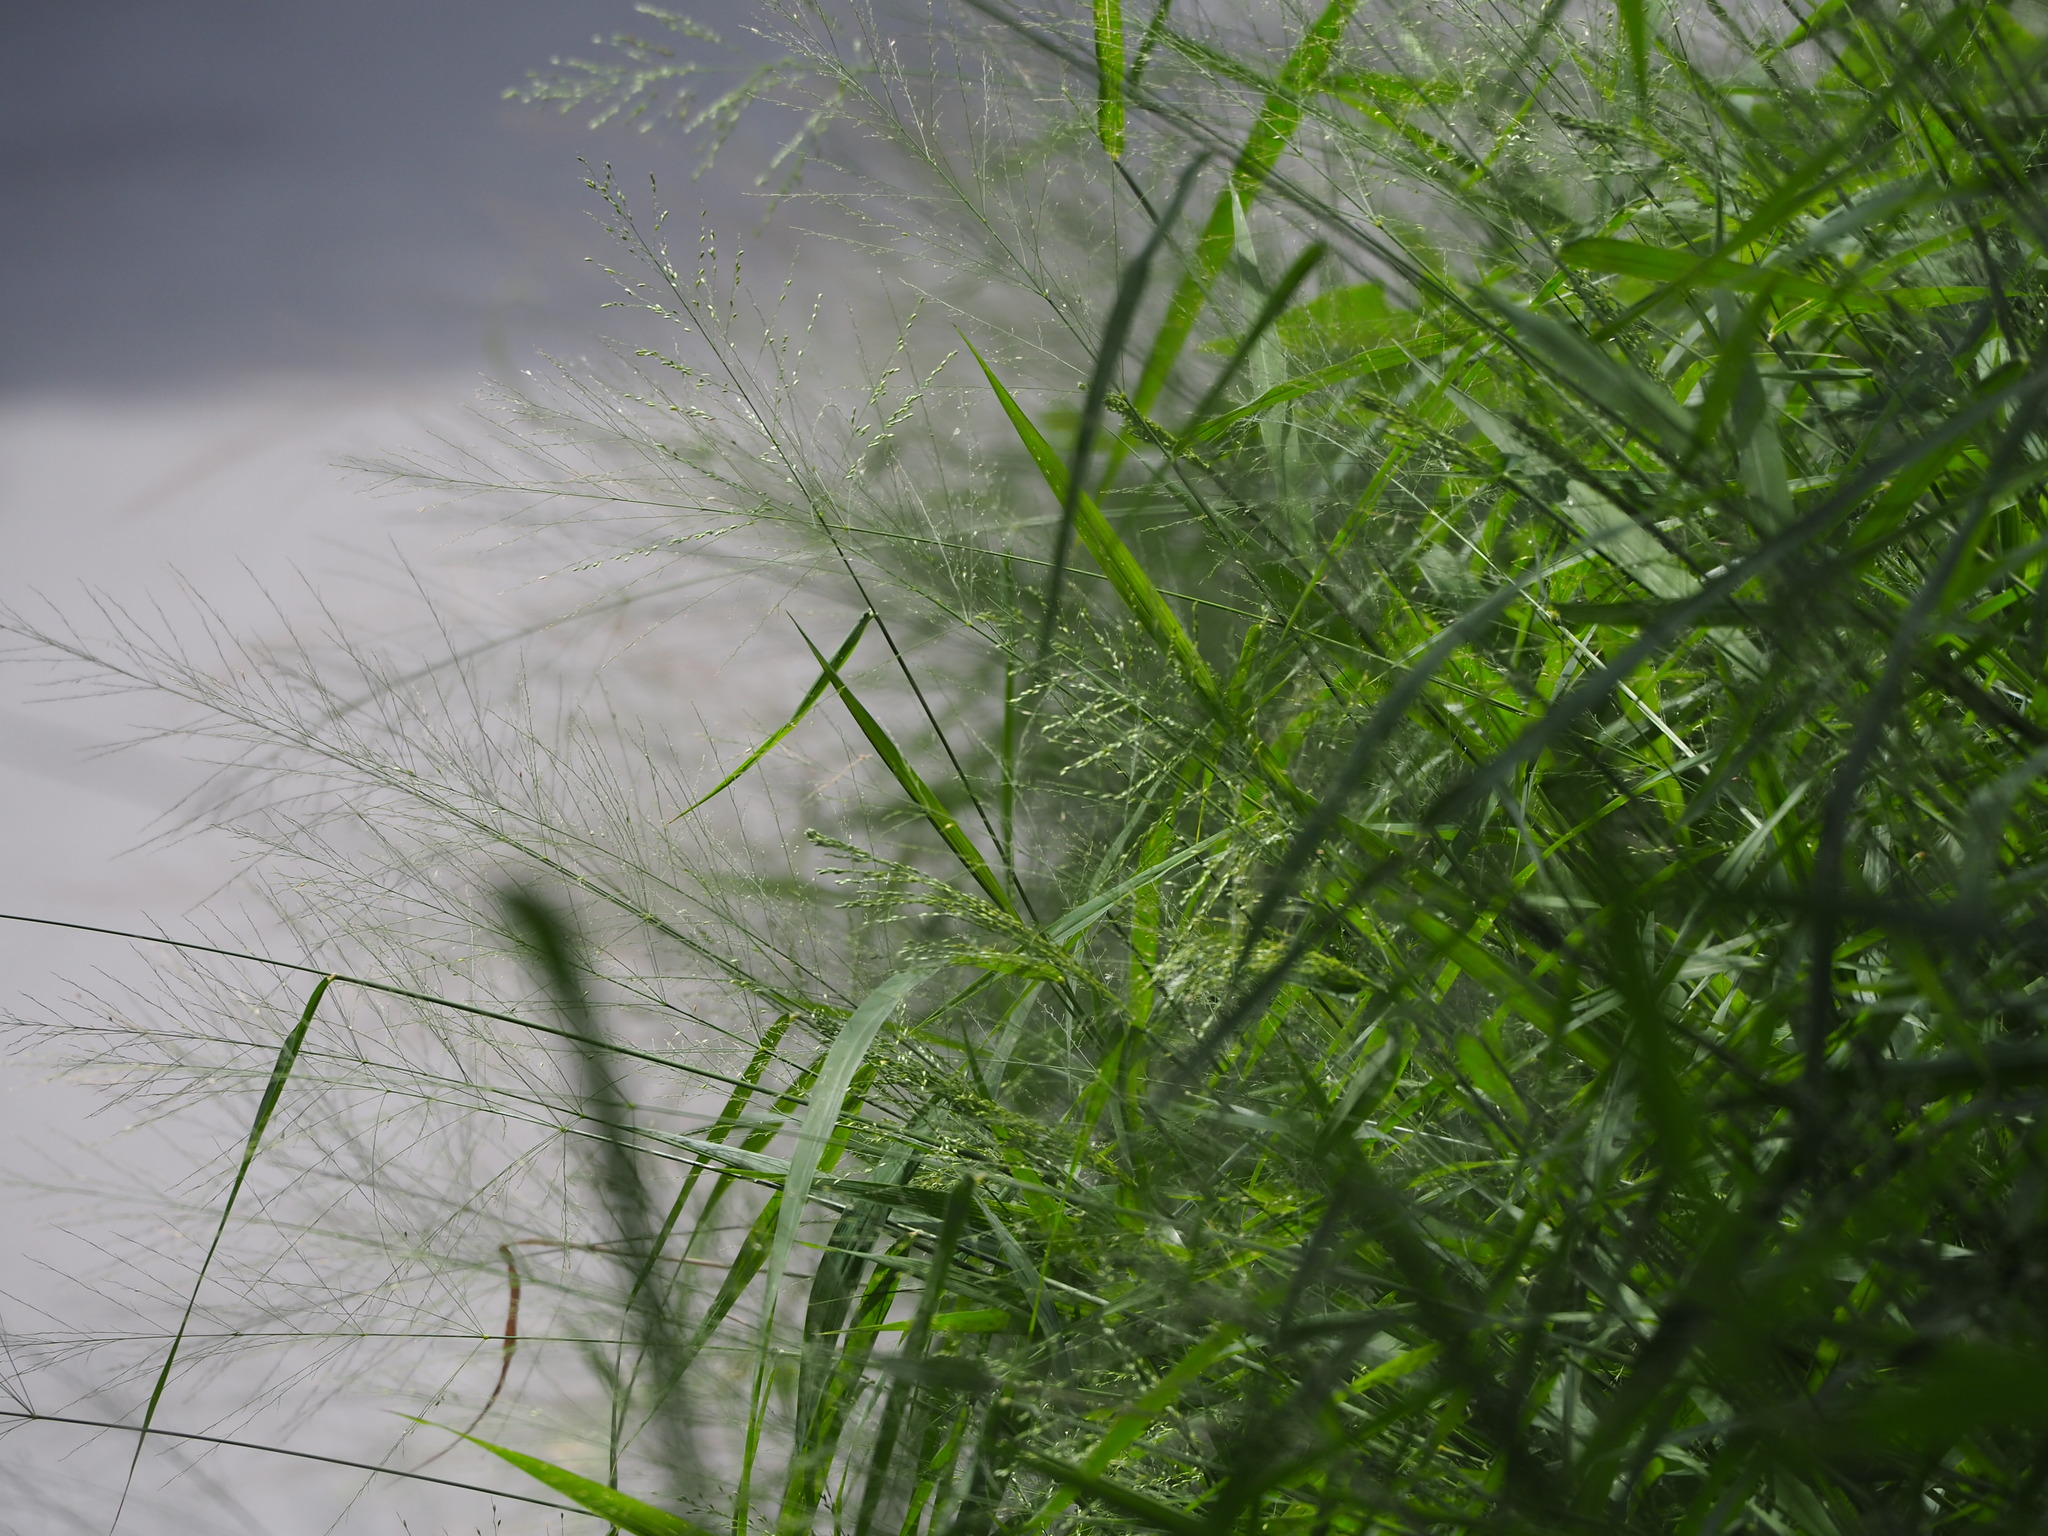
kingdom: Plantae
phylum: Tracheophyta
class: Liliopsida
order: Poales
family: Poaceae
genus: Megathyrsus
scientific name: Megathyrsus maximus
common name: Guineagrass
